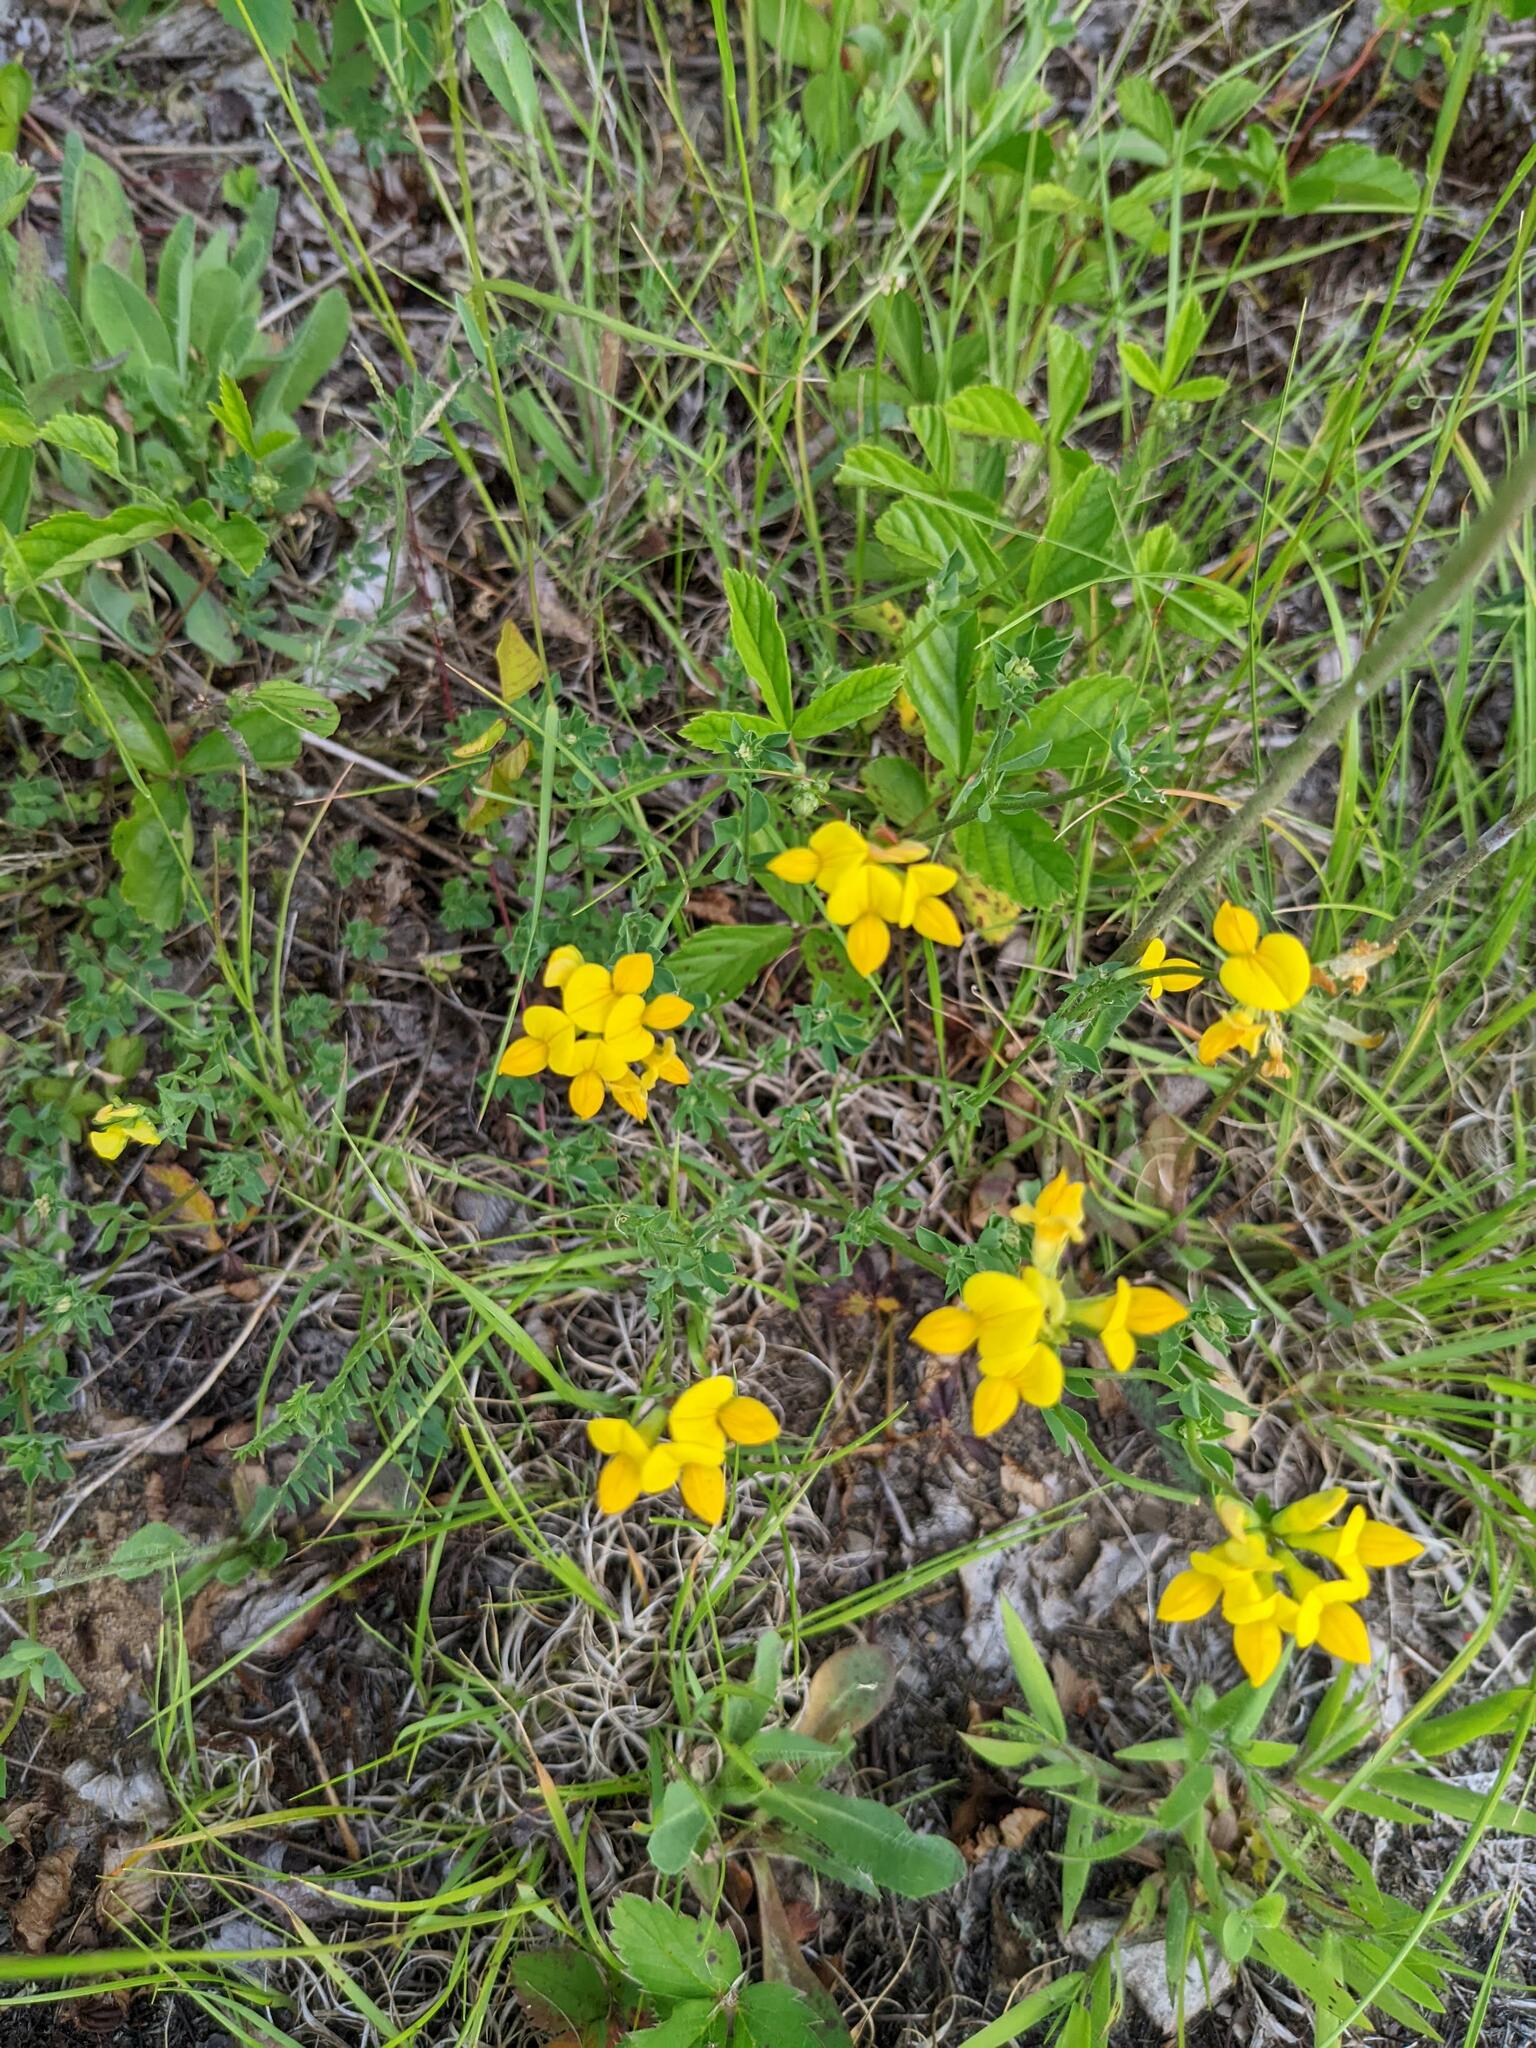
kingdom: Plantae
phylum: Tracheophyta
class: Magnoliopsida
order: Fabales
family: Fabaceae
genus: Lotus
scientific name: Lotus corniculatus
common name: Common bird's-foot-trefoil
